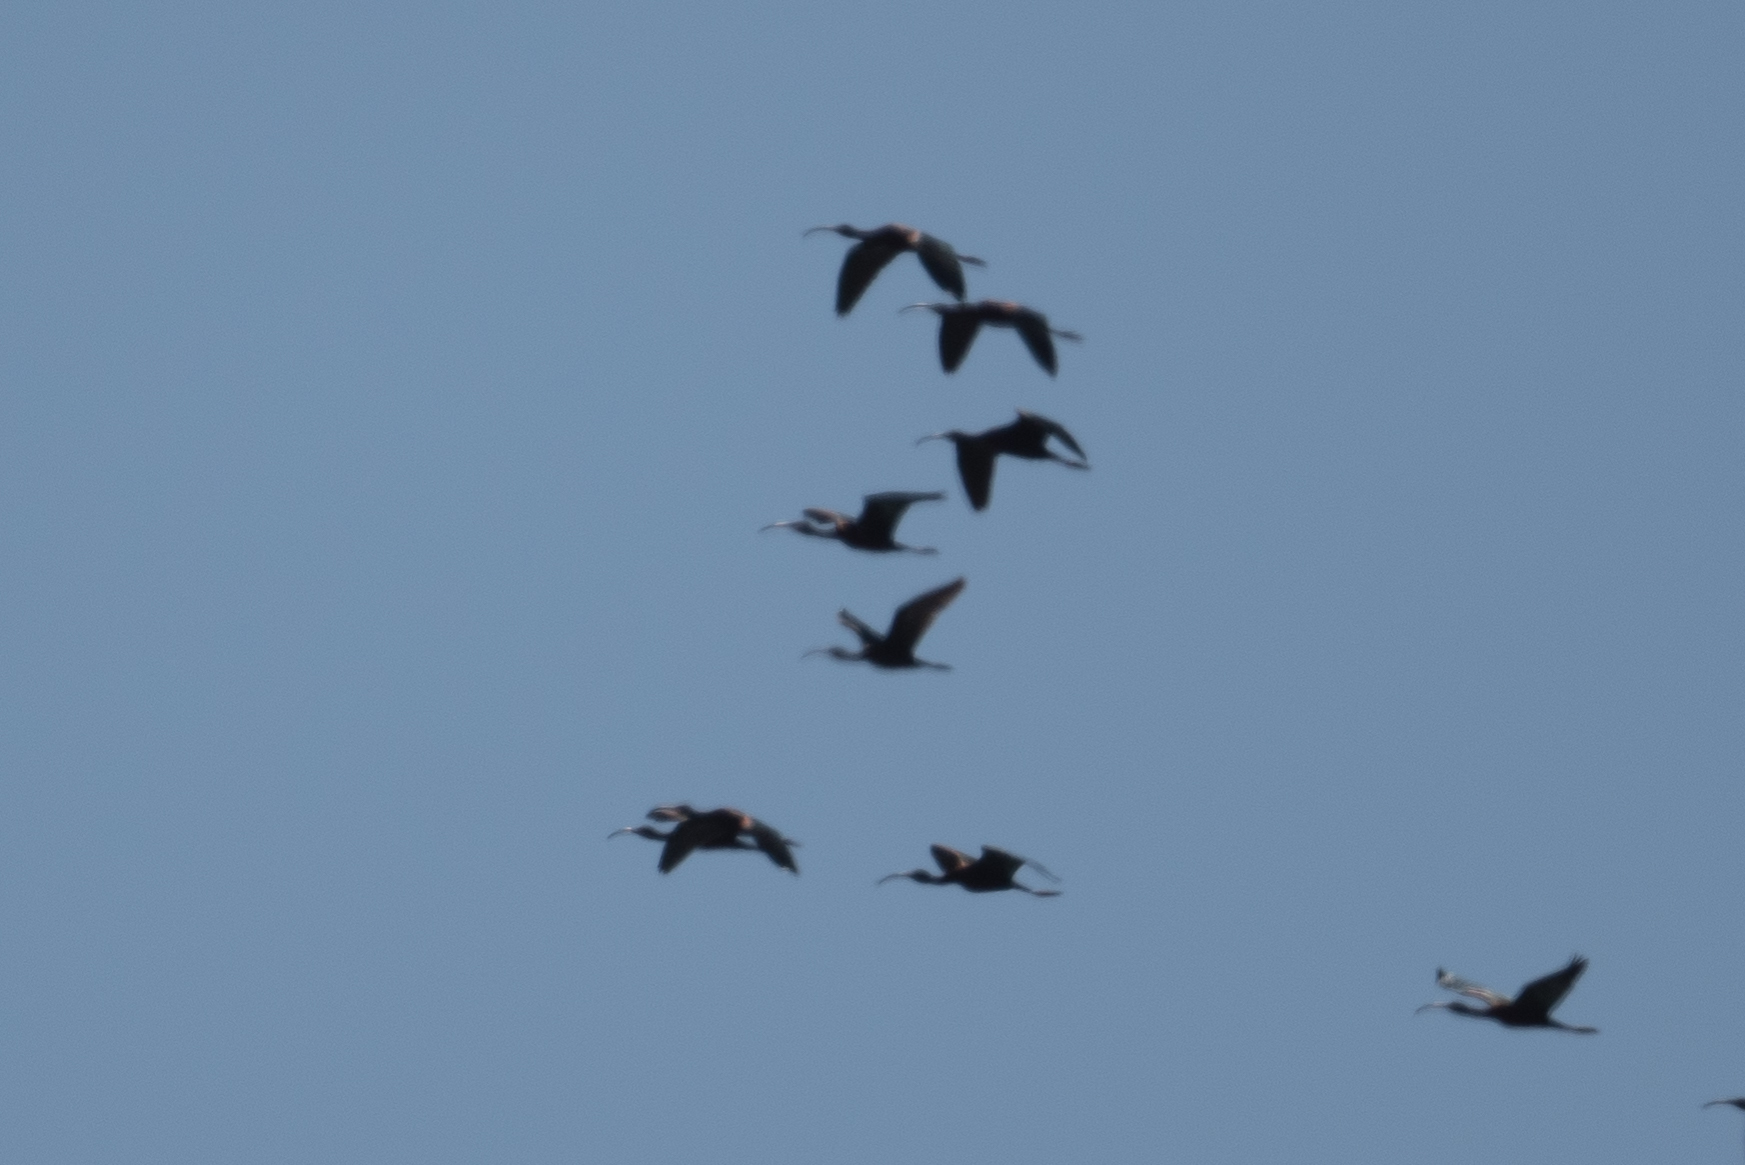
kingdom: Animalia
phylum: Chordata
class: Aves
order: Pelecaniformes
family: Threskiornithidae
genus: Plegadis
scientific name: Plegadis chihi
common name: White-faced ibis
